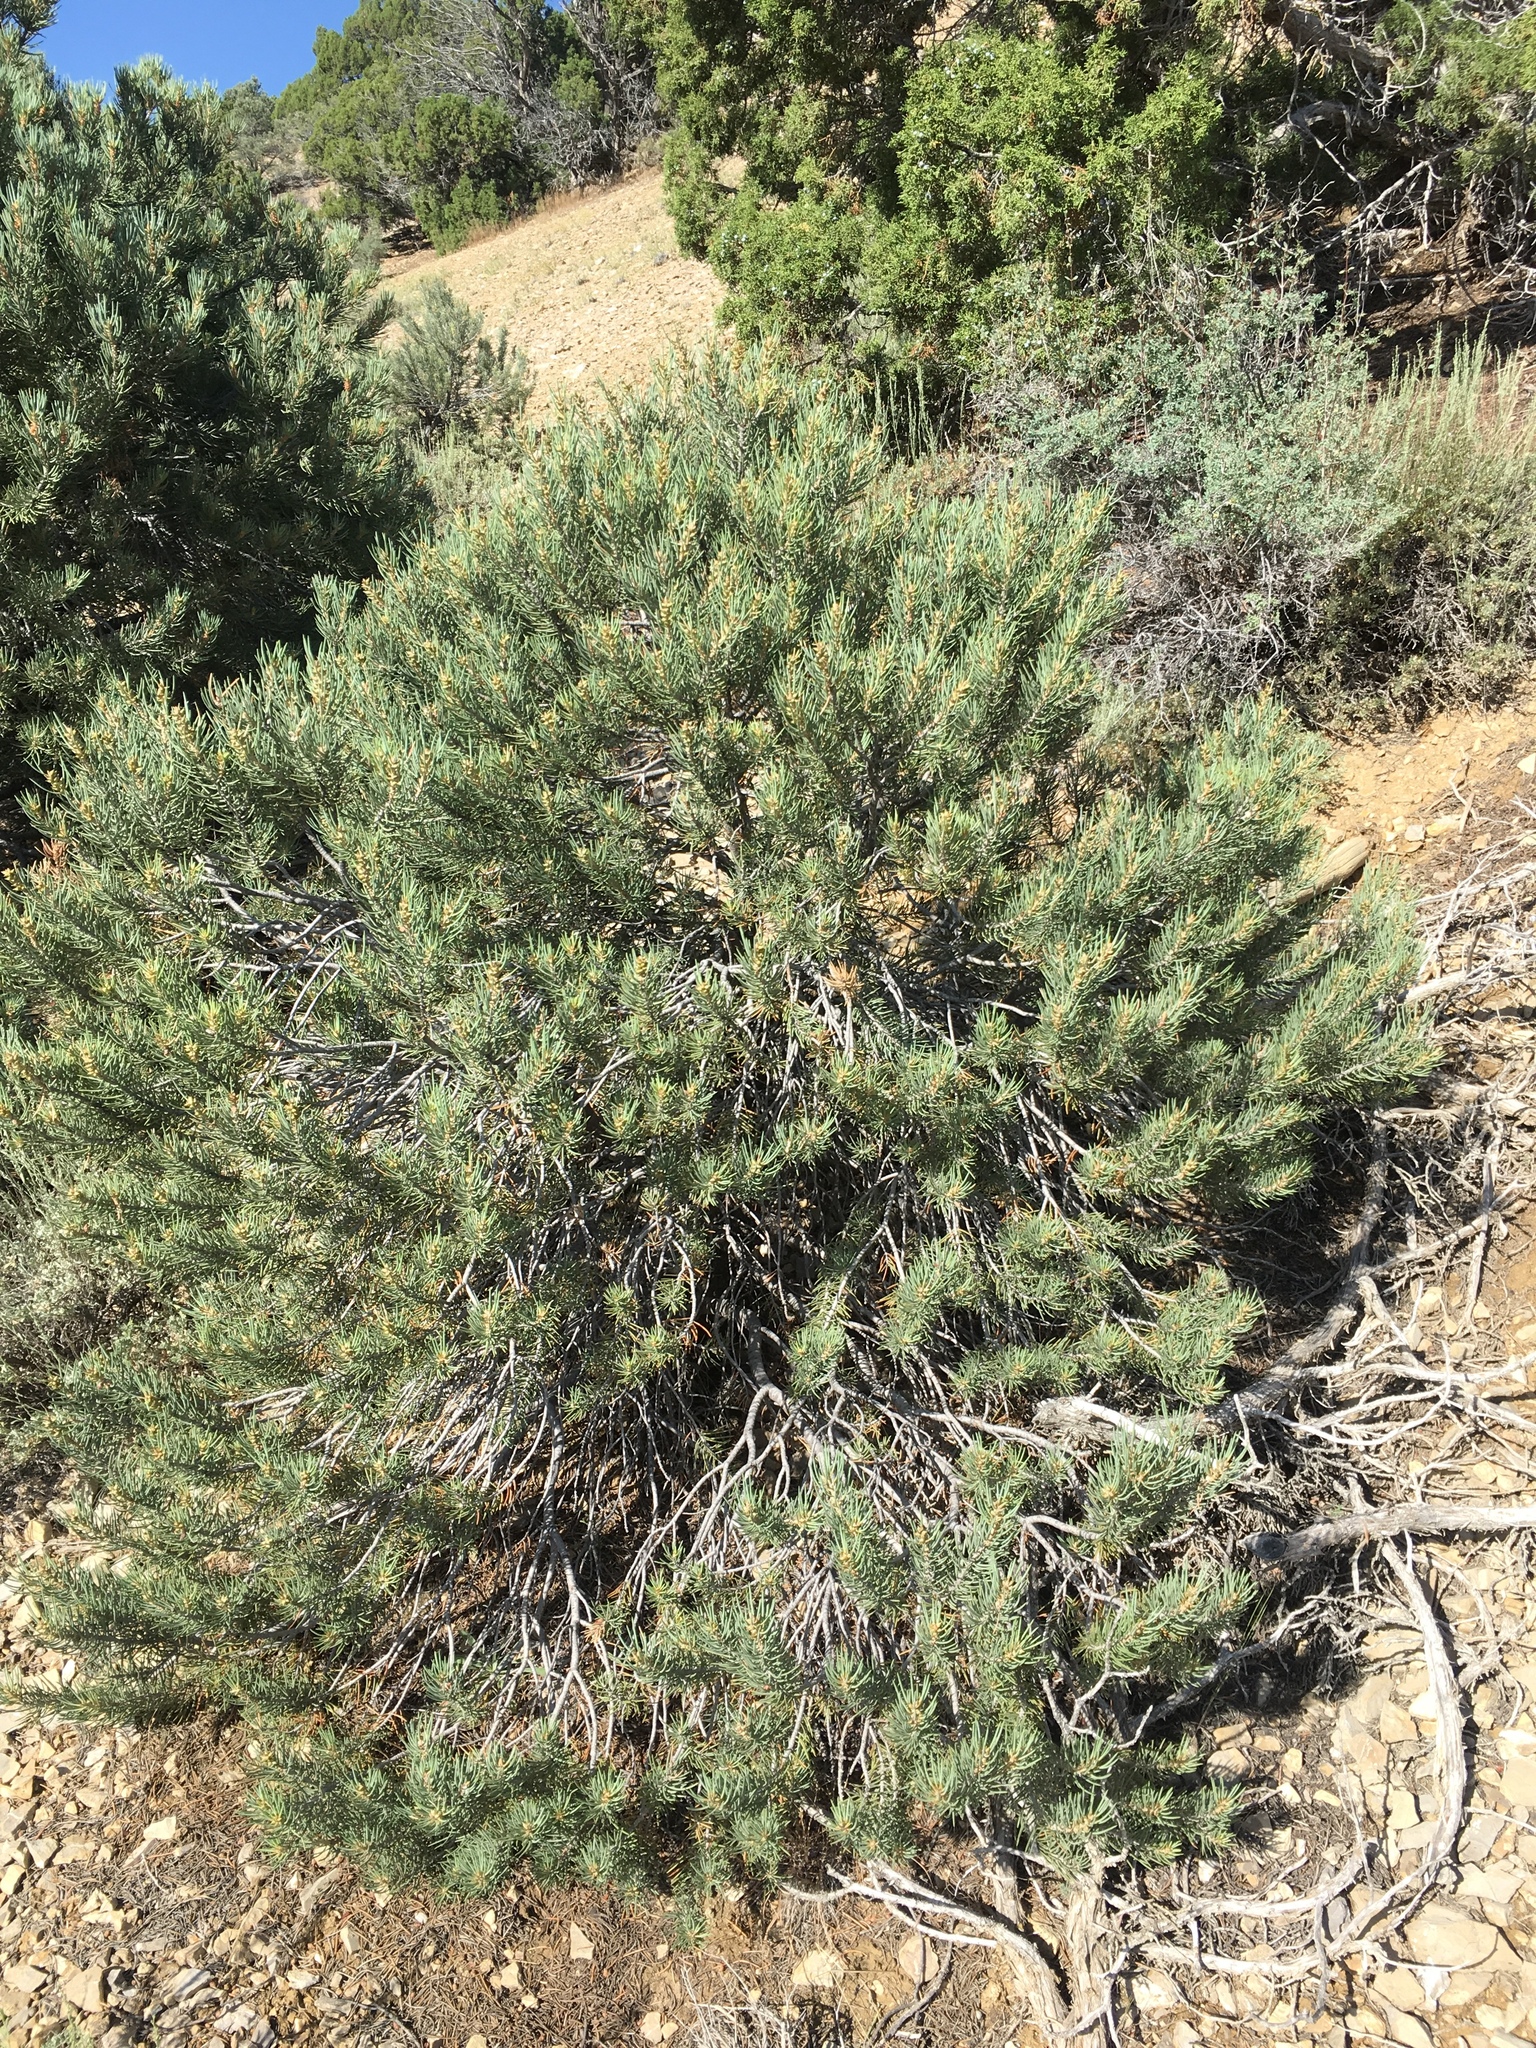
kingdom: Plantae
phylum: Tracheophyta
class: Pinopsida
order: Pinales
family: Pinaceae
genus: Pinus
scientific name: Pinus monophylla
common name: One-leaved nut pine
